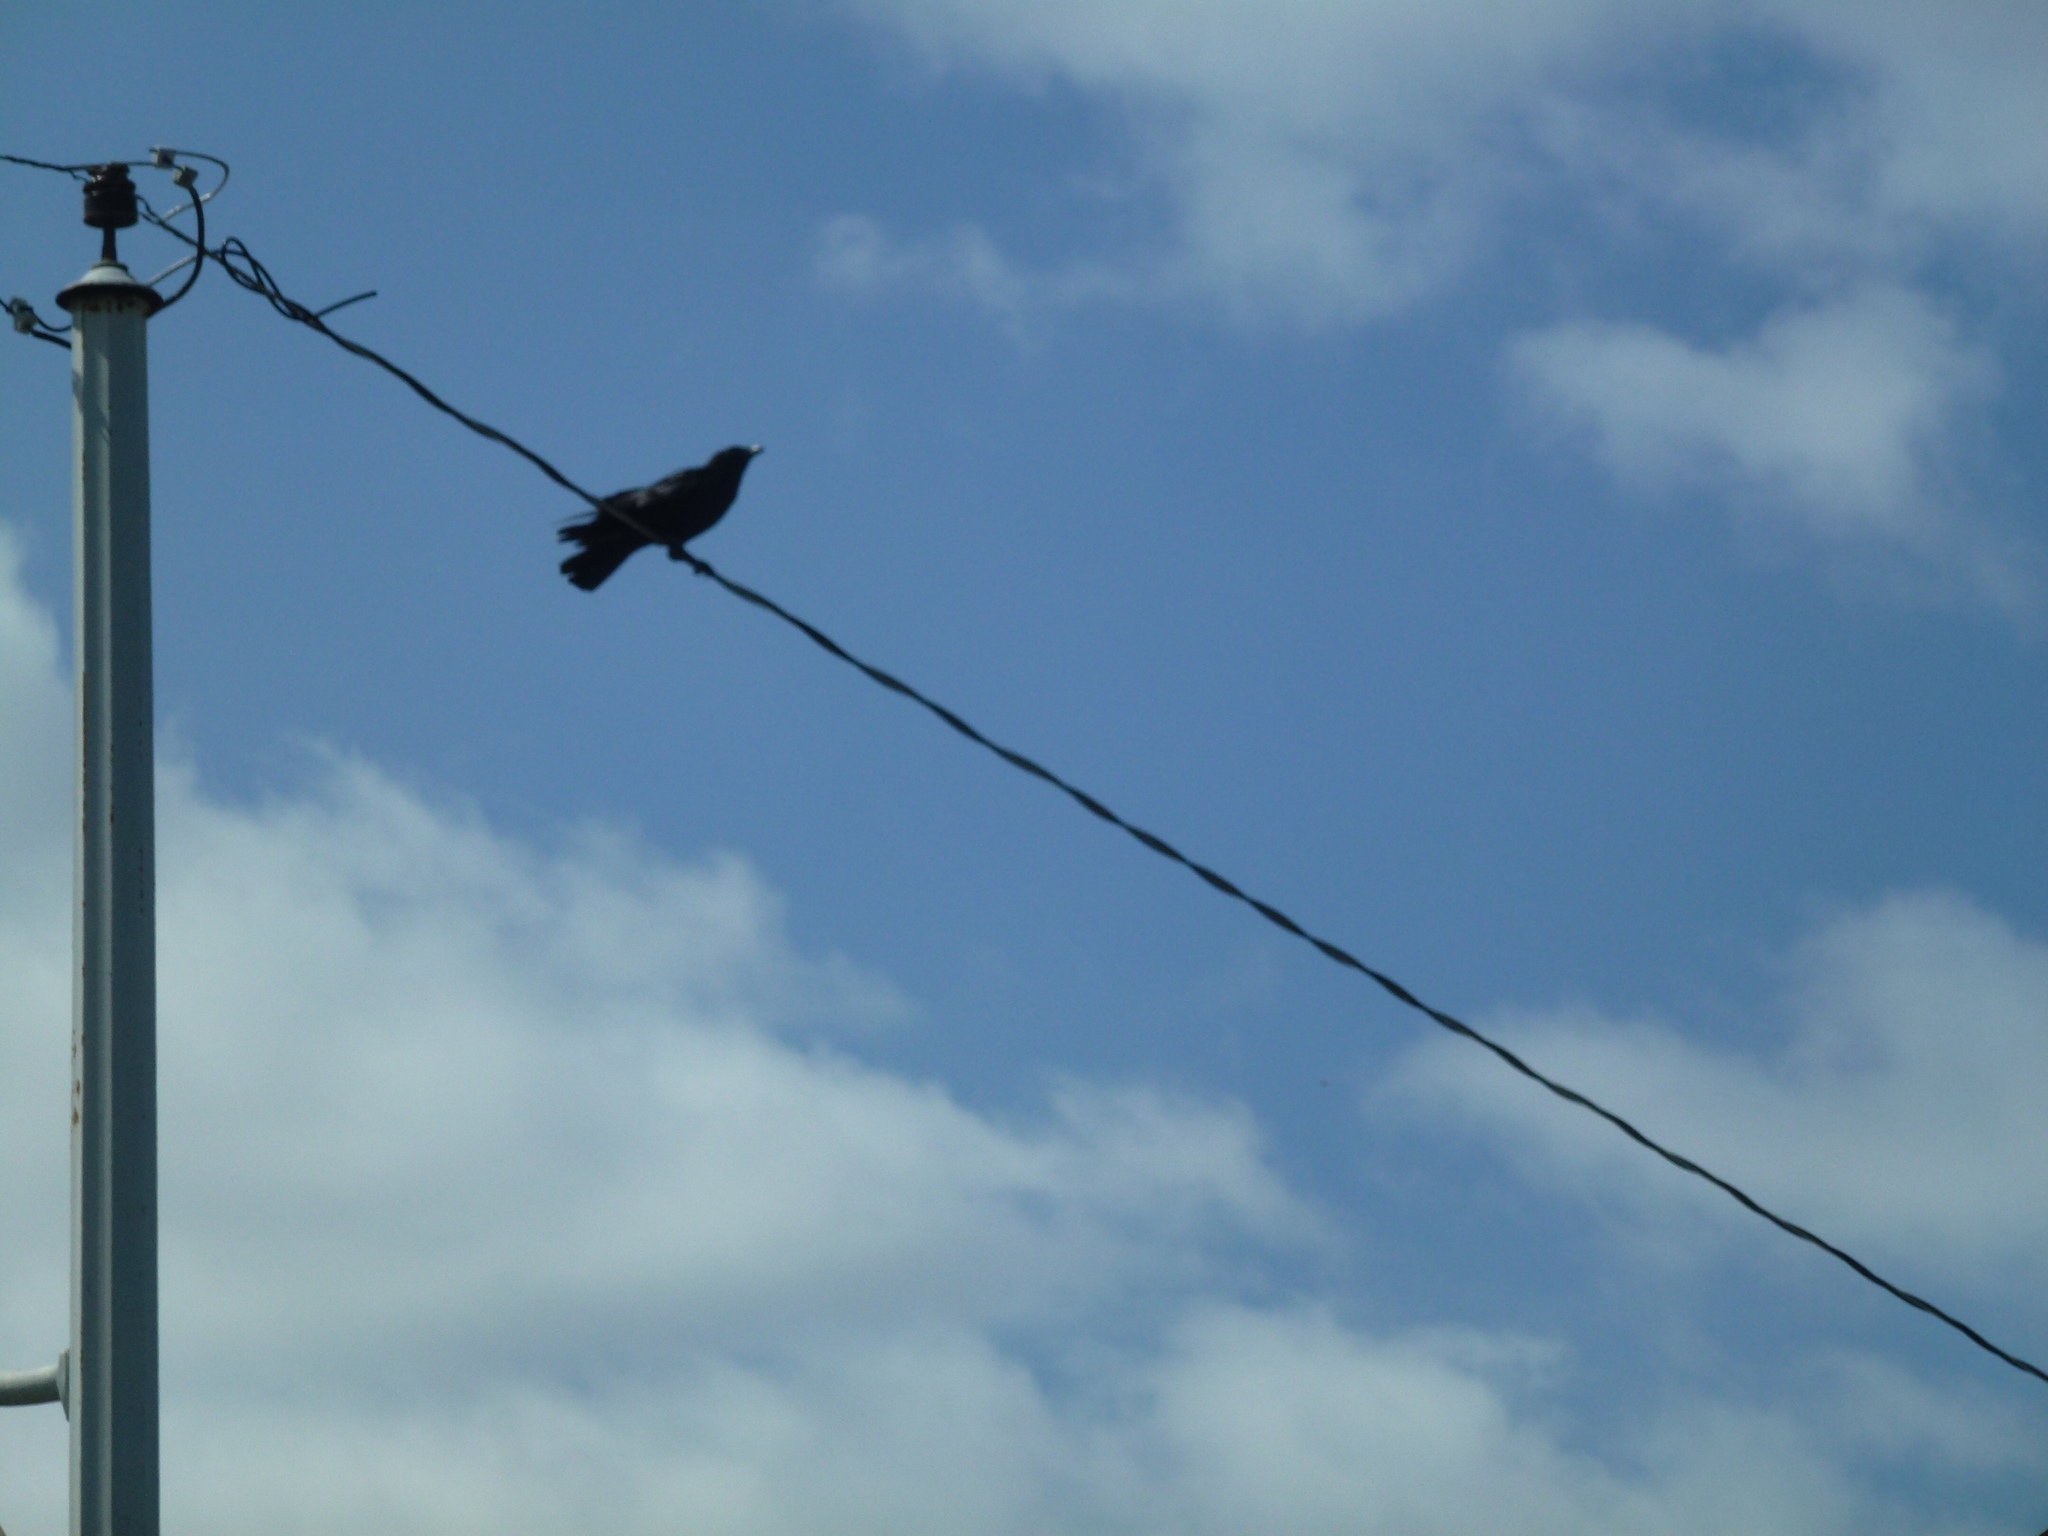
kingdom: Animalia
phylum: Chordata
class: Aves
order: Passeriformes
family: Corvidae
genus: Corvus
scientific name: Corvus brachyrhynchos
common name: American crow
